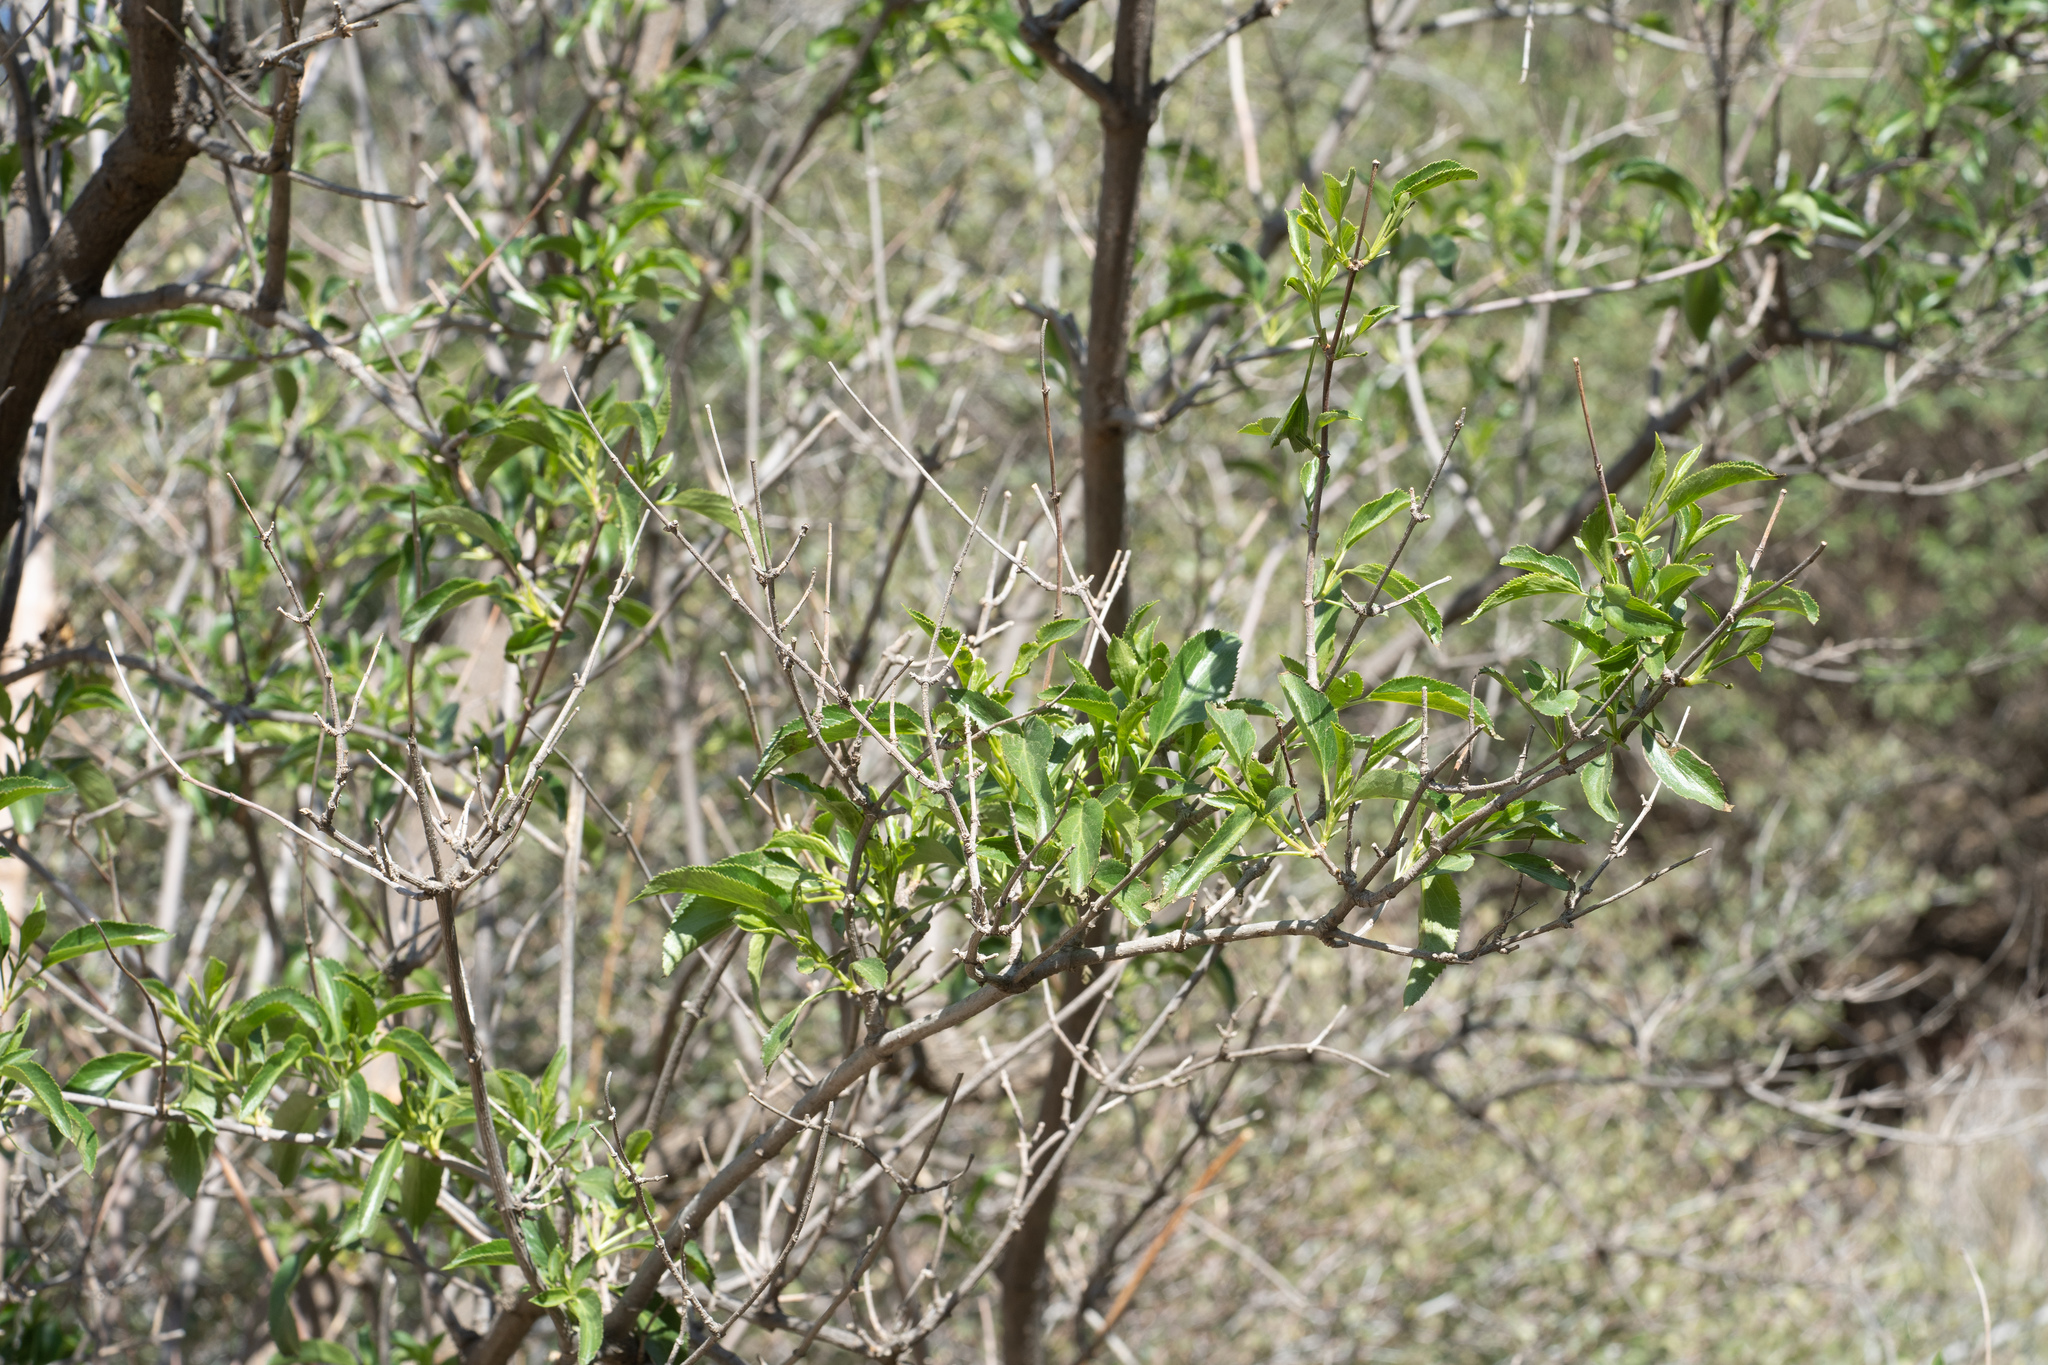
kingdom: Plantae
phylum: Tracheophyta
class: Magnoliopsida
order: Dipsacales
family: Viburnaceae
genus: Sambucus
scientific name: Sambucus cerulea
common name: Blue elder
